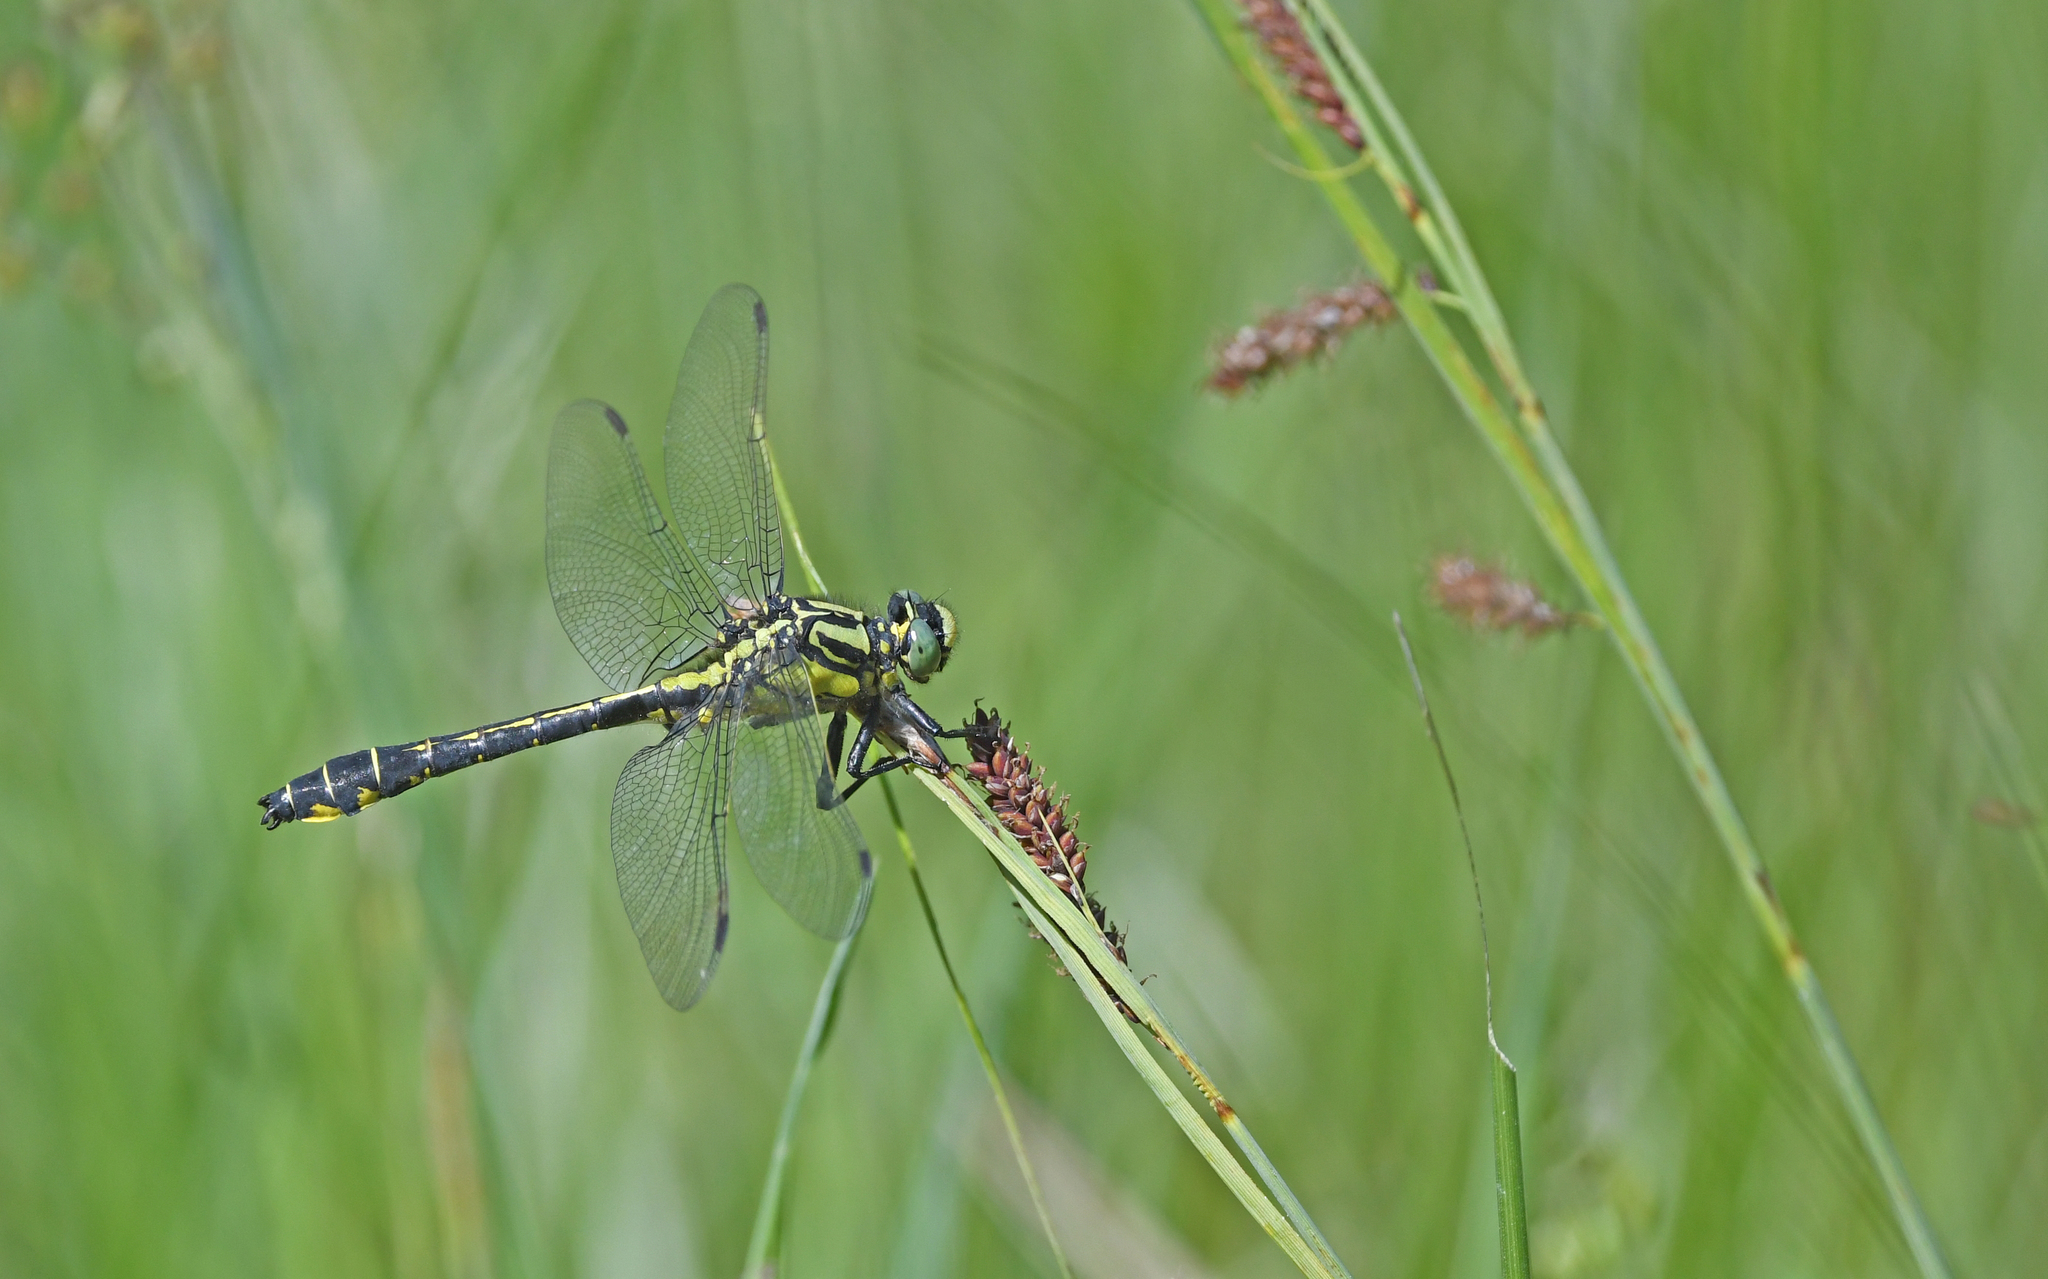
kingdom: Animalia
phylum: Arthropoda
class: Insecta
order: Odonata
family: Gomphidae
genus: Gomphus
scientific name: Gomphus vulgatissimus
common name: Club-tailed dragonfly
